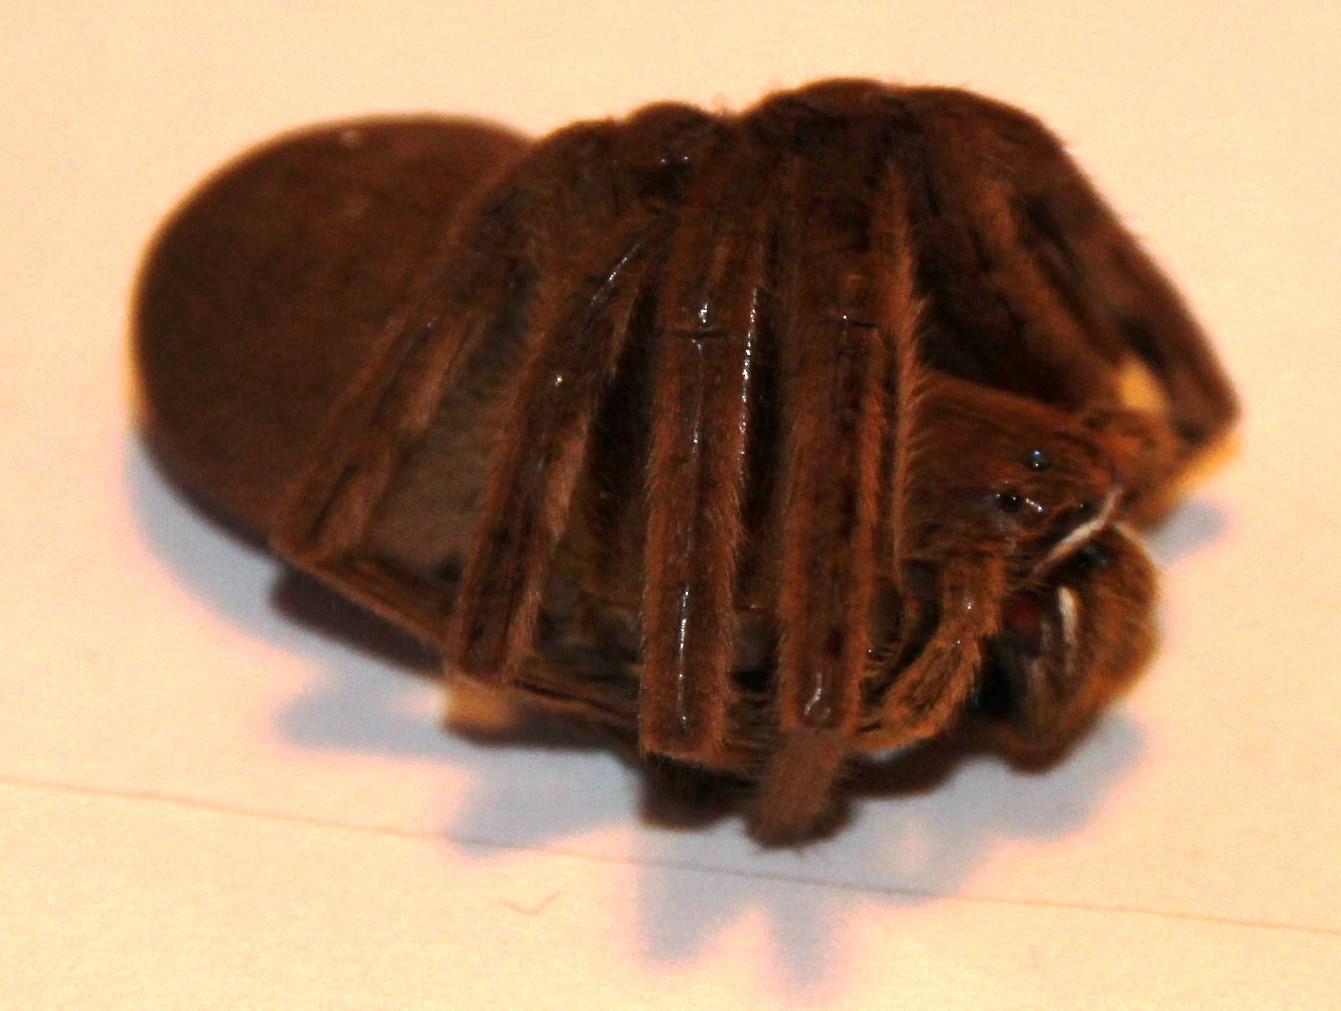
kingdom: Animalia
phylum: Arthropoda
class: Arachnida
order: Araneae
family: Sparassidae
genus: Palystes
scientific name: Palystes castaneus
